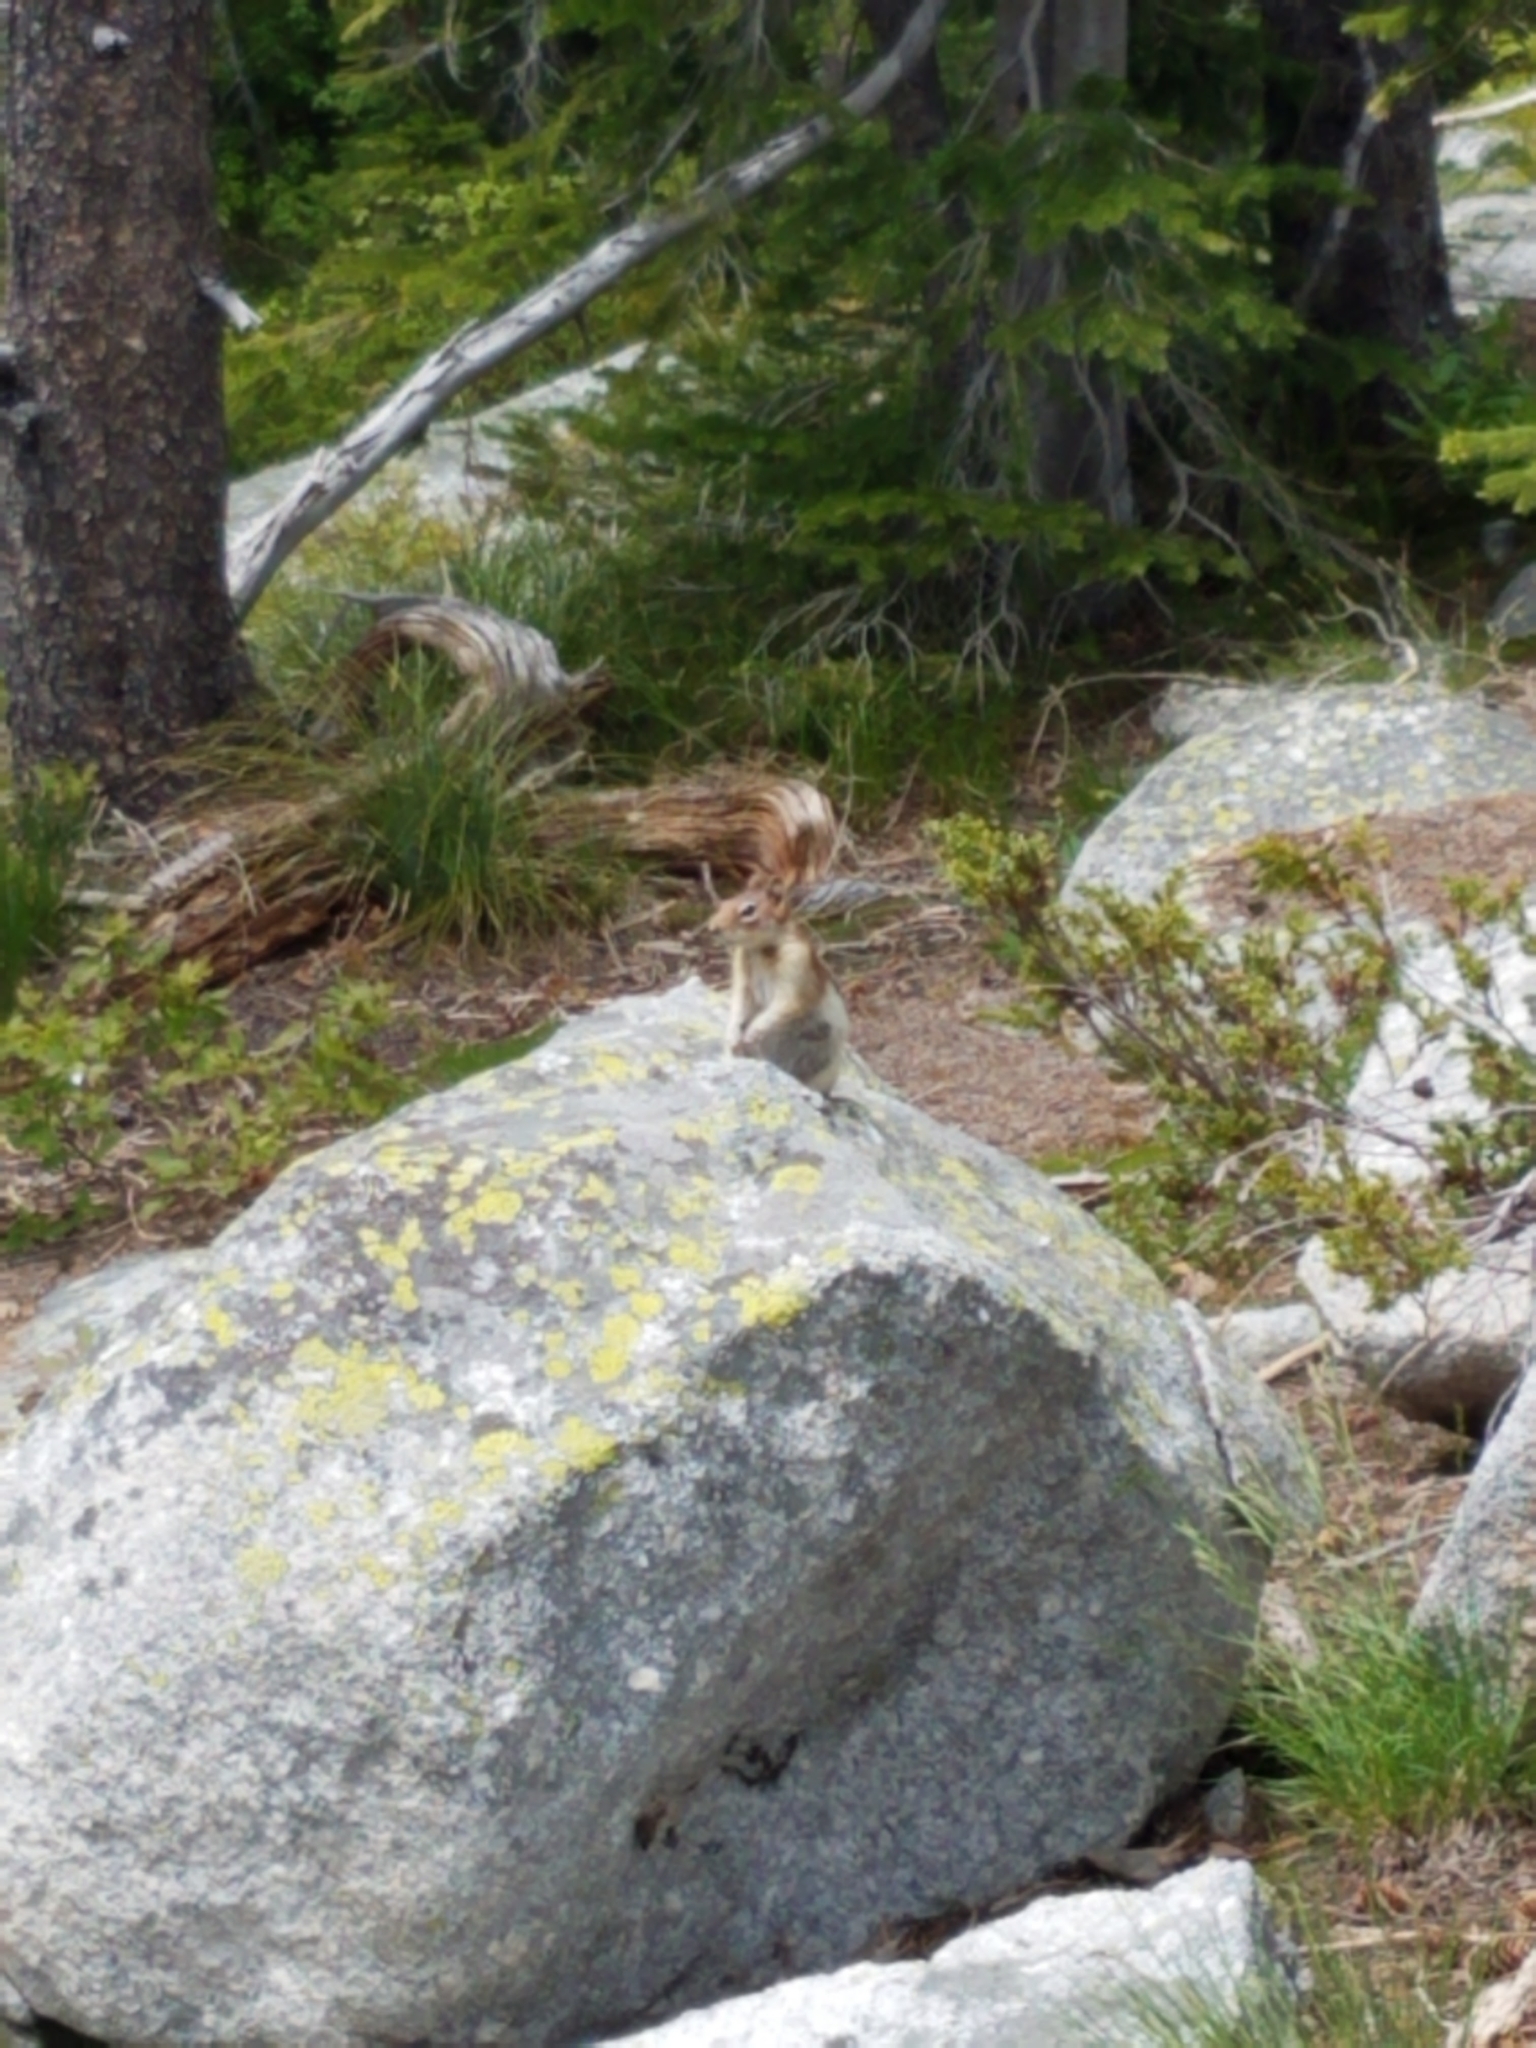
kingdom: Animalia
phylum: Chordata
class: Mammalia
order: Rodentia
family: Sciuridae
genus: Callospermophilus
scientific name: Callospermophilus lateralis
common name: Golden-mantled ground squirrel
